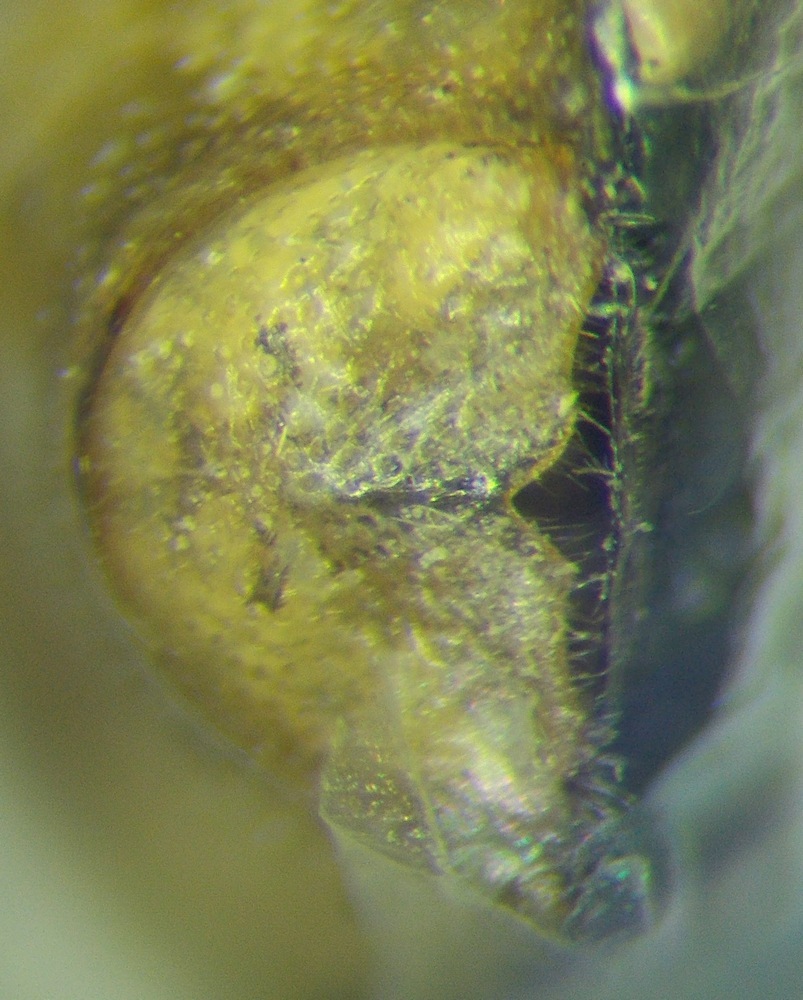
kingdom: Animalia
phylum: Arthropoda
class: Insecta
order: Hemiptera
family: Pentatomidae
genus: Aelia
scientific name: Aelia acuminata
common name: Bishop's mitre
